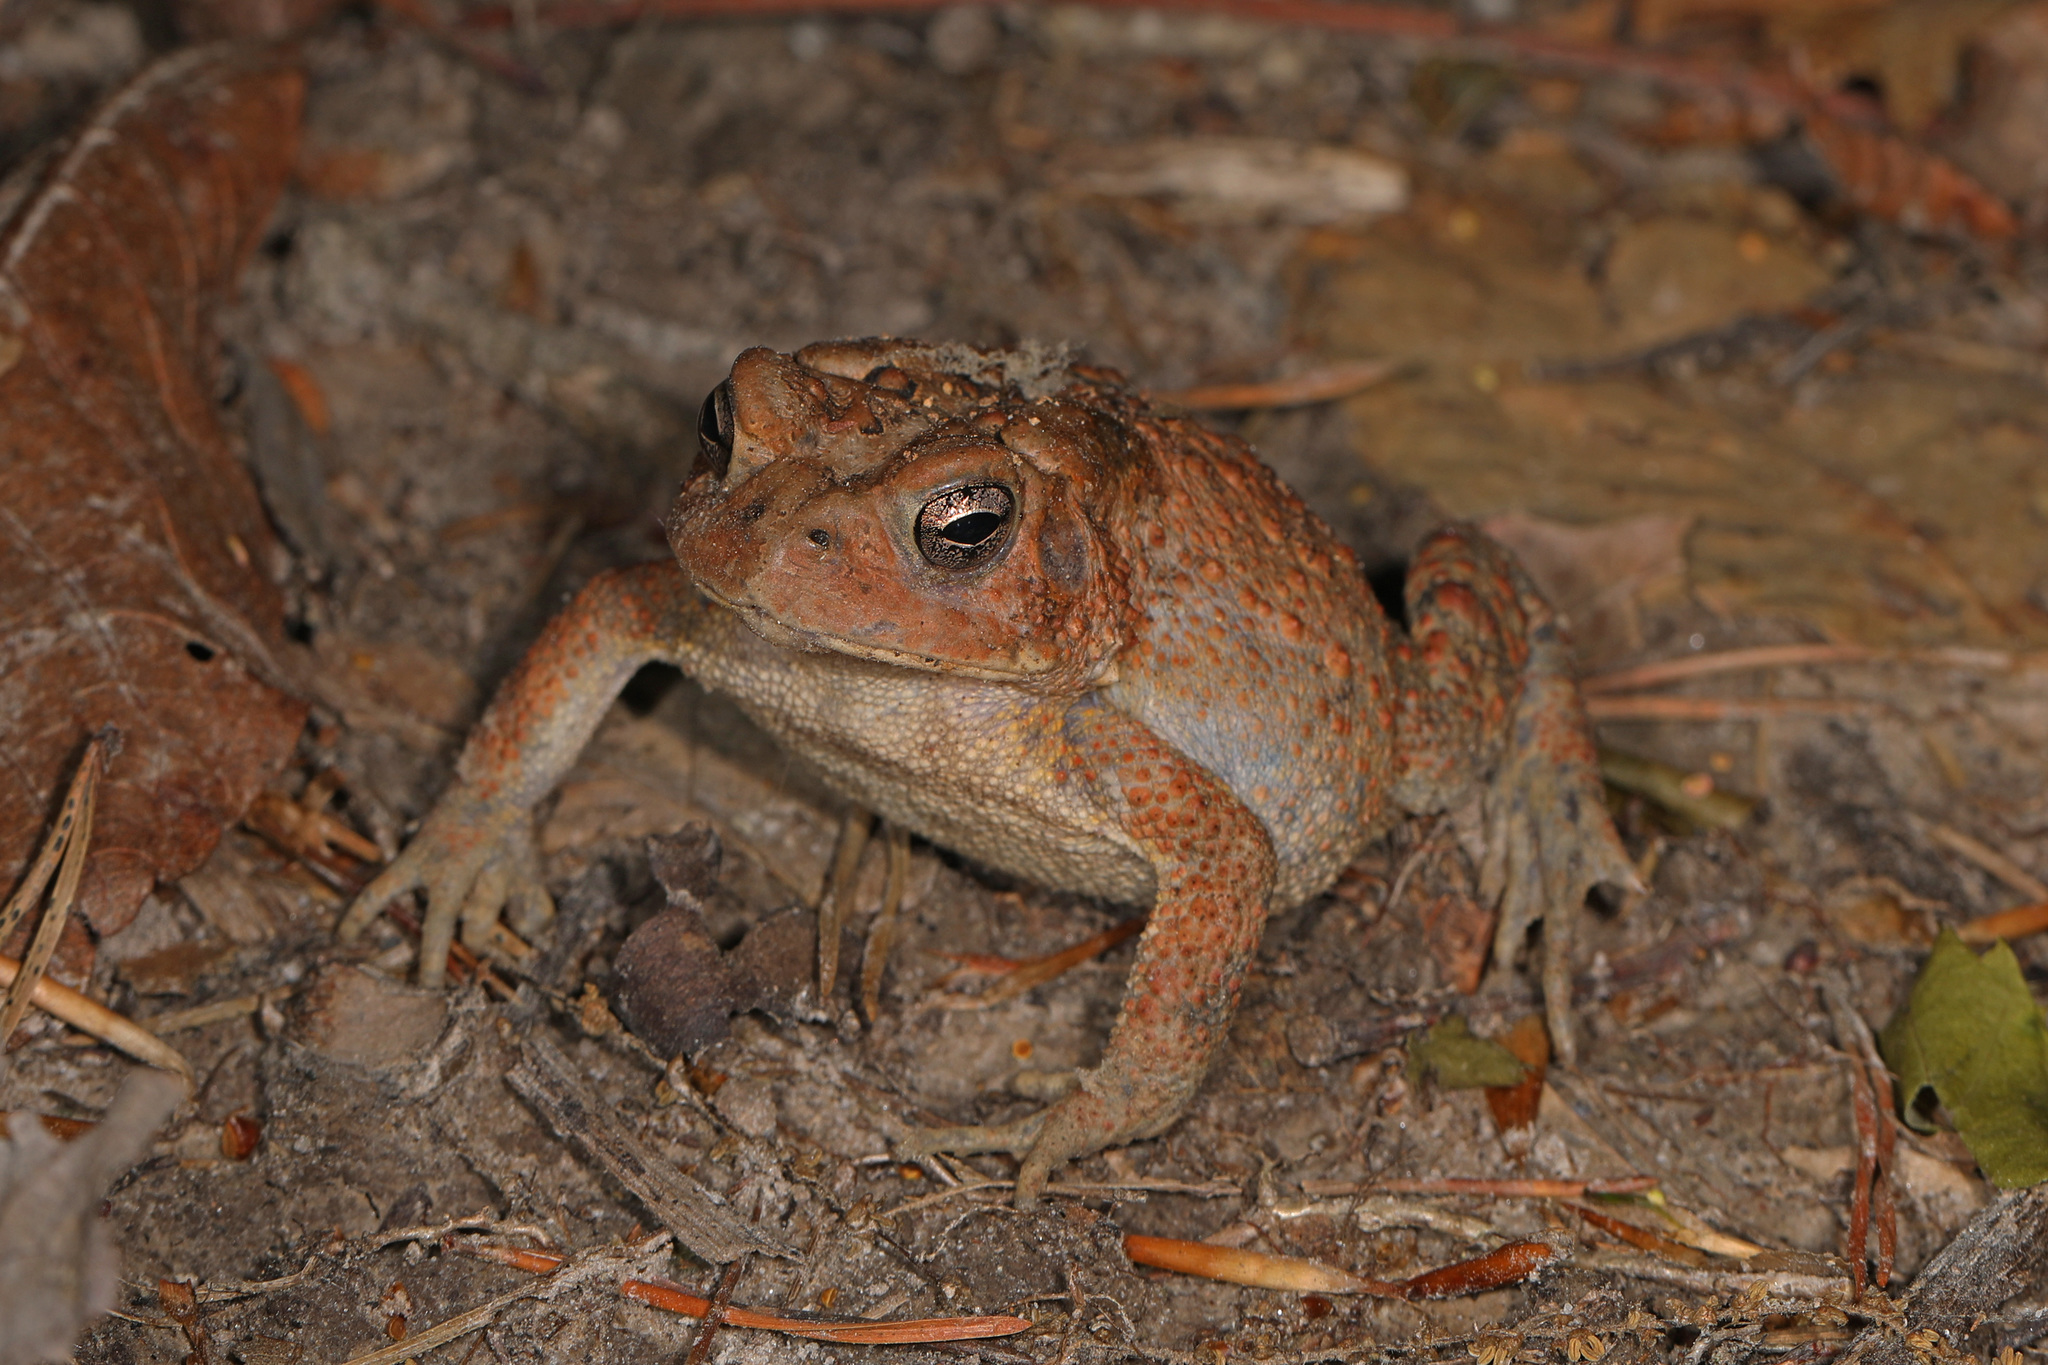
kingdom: Animalia
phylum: Chordata
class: Amphibia
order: Anura
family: Bufonidae
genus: Anaxyrus
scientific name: Anaxyrus americanus
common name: American toad
